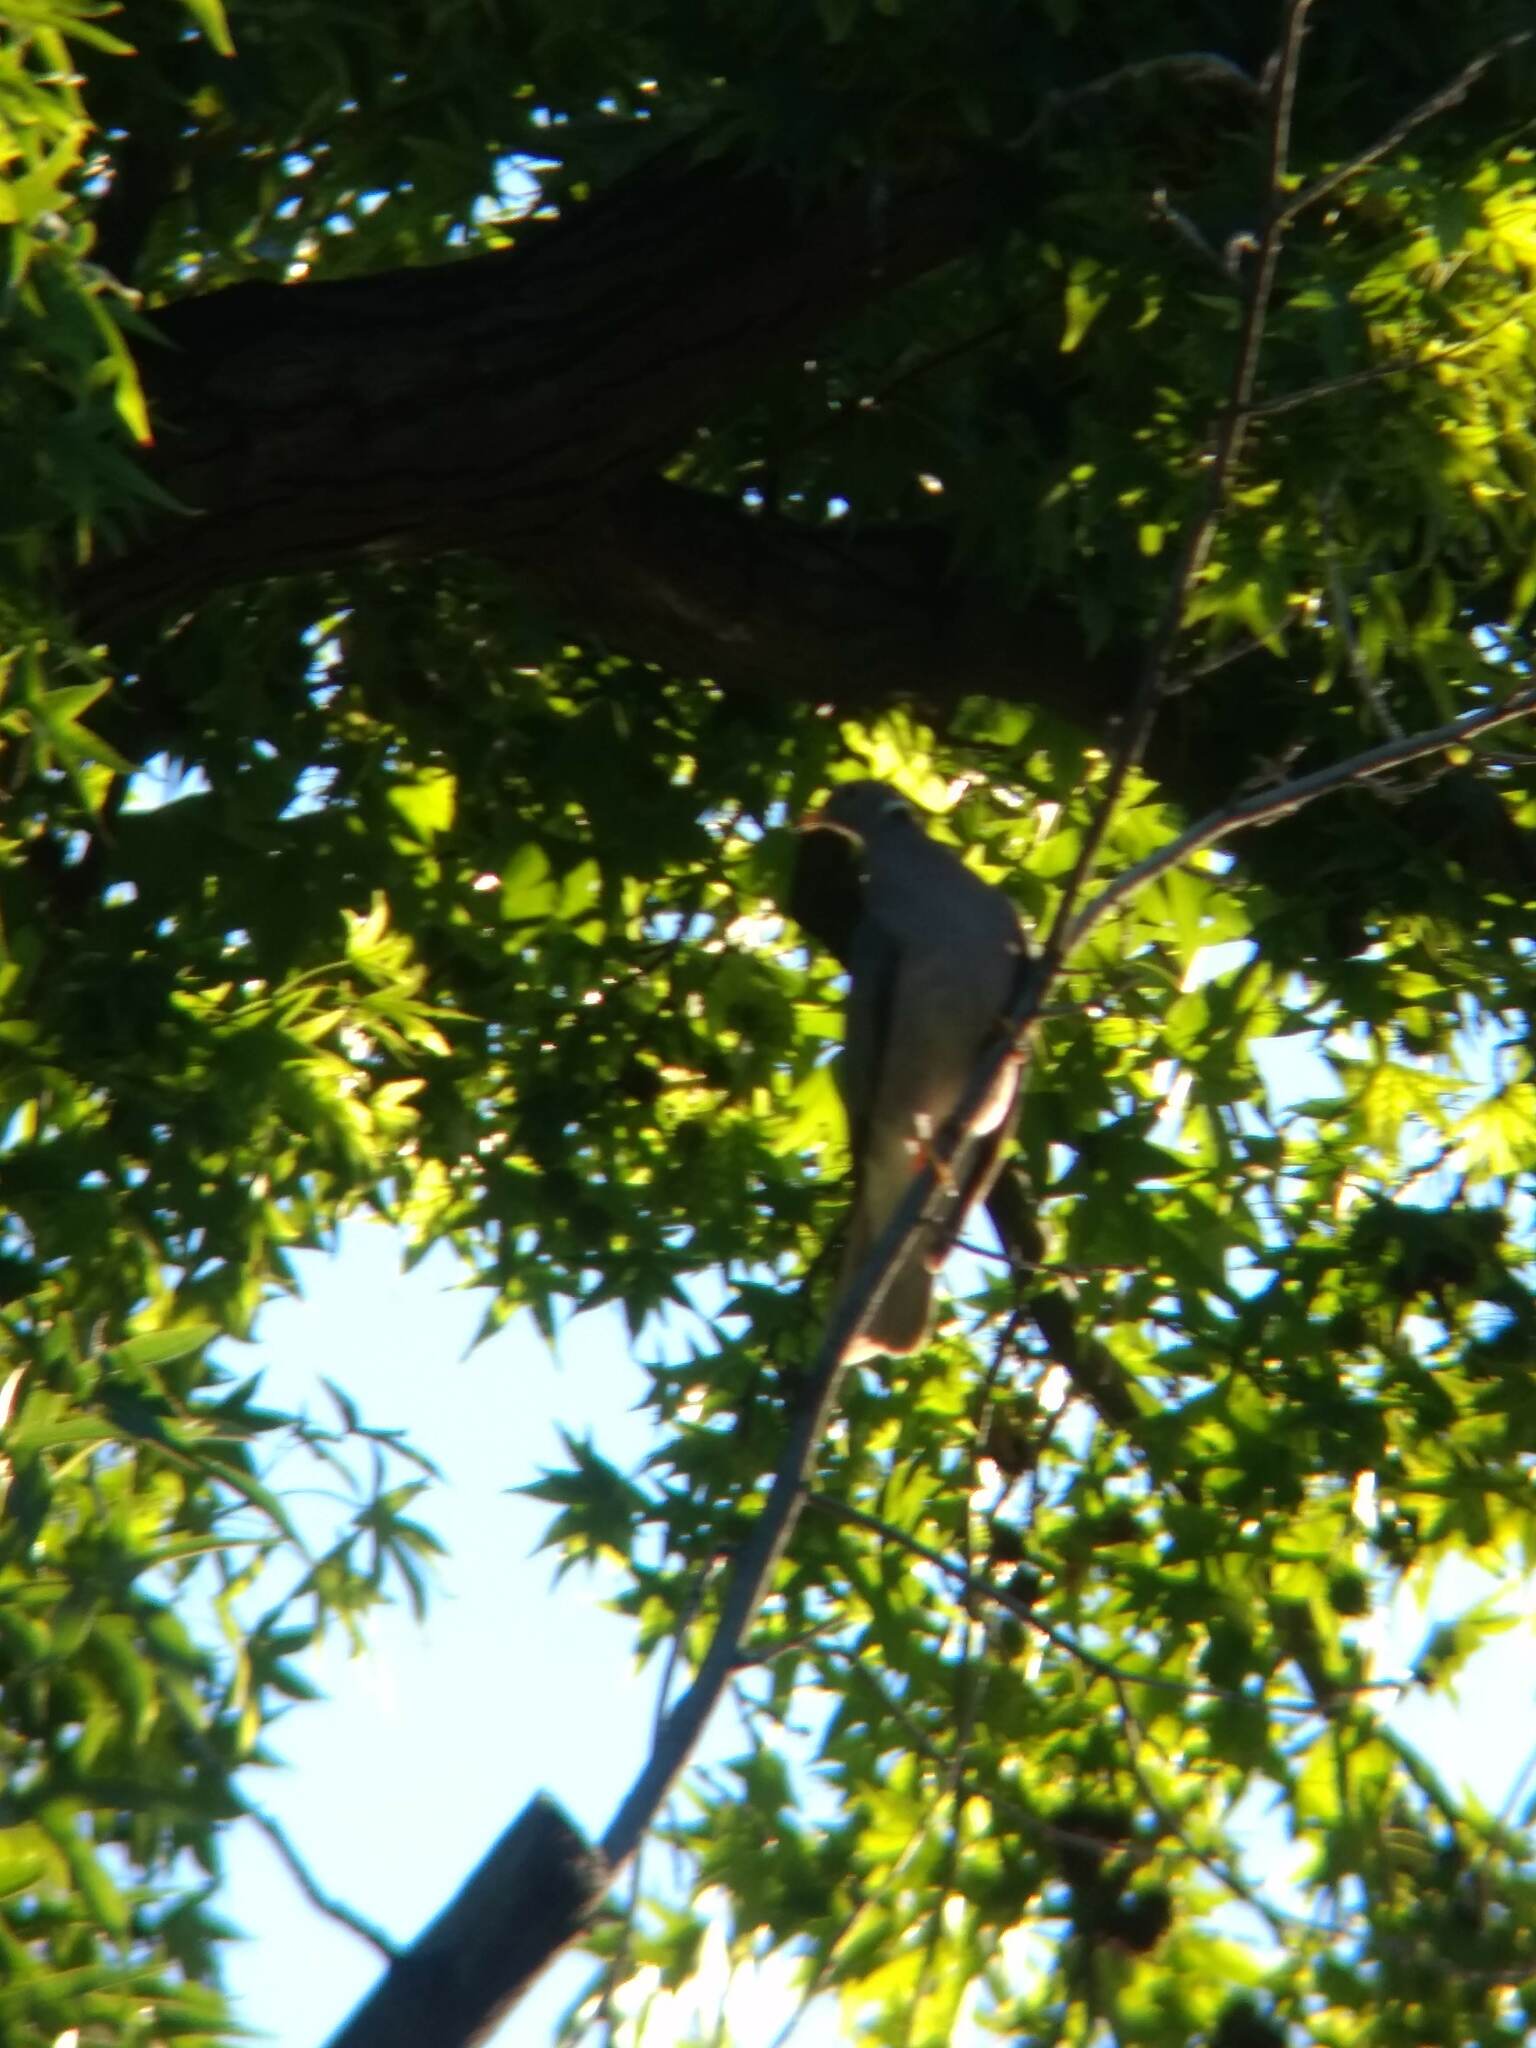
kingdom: Animalia
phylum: Chordata
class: Aves
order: Columbiformes
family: Columbidae
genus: Patagioenas
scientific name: Patagioenas fasciata
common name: Band-tailed pigeon
